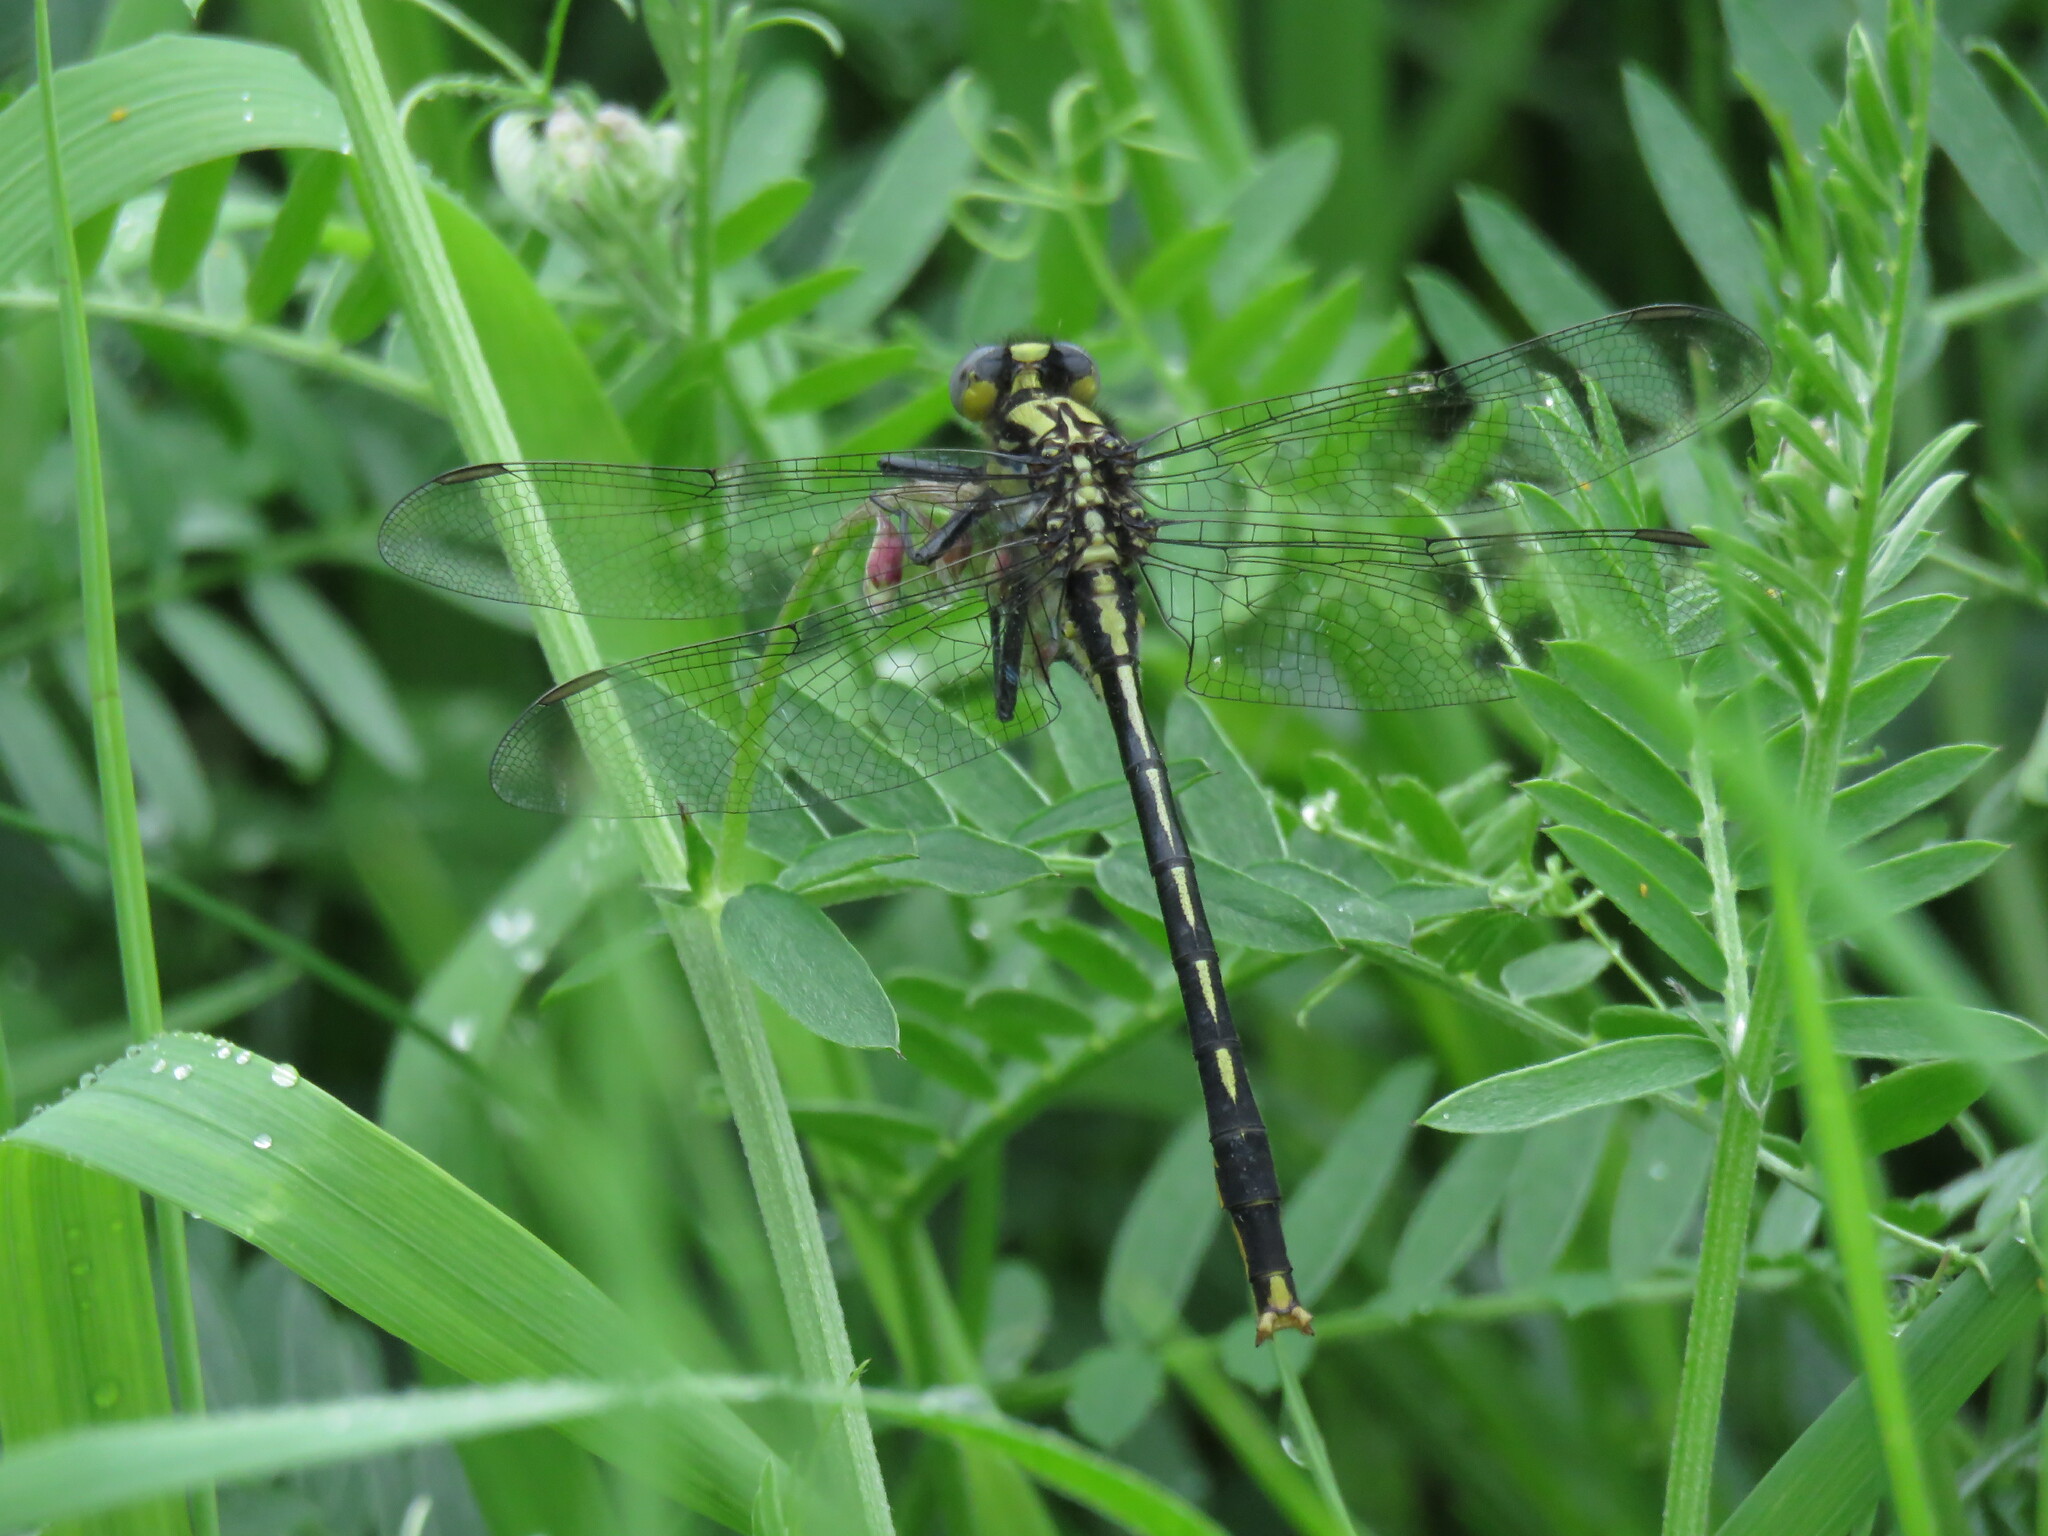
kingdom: Animalia
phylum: Arthropoda
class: Insecta
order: Odonata
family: Gomphidae
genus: Arigomphus
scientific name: Arigomphus furcifer
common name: Lilypad clubtail
